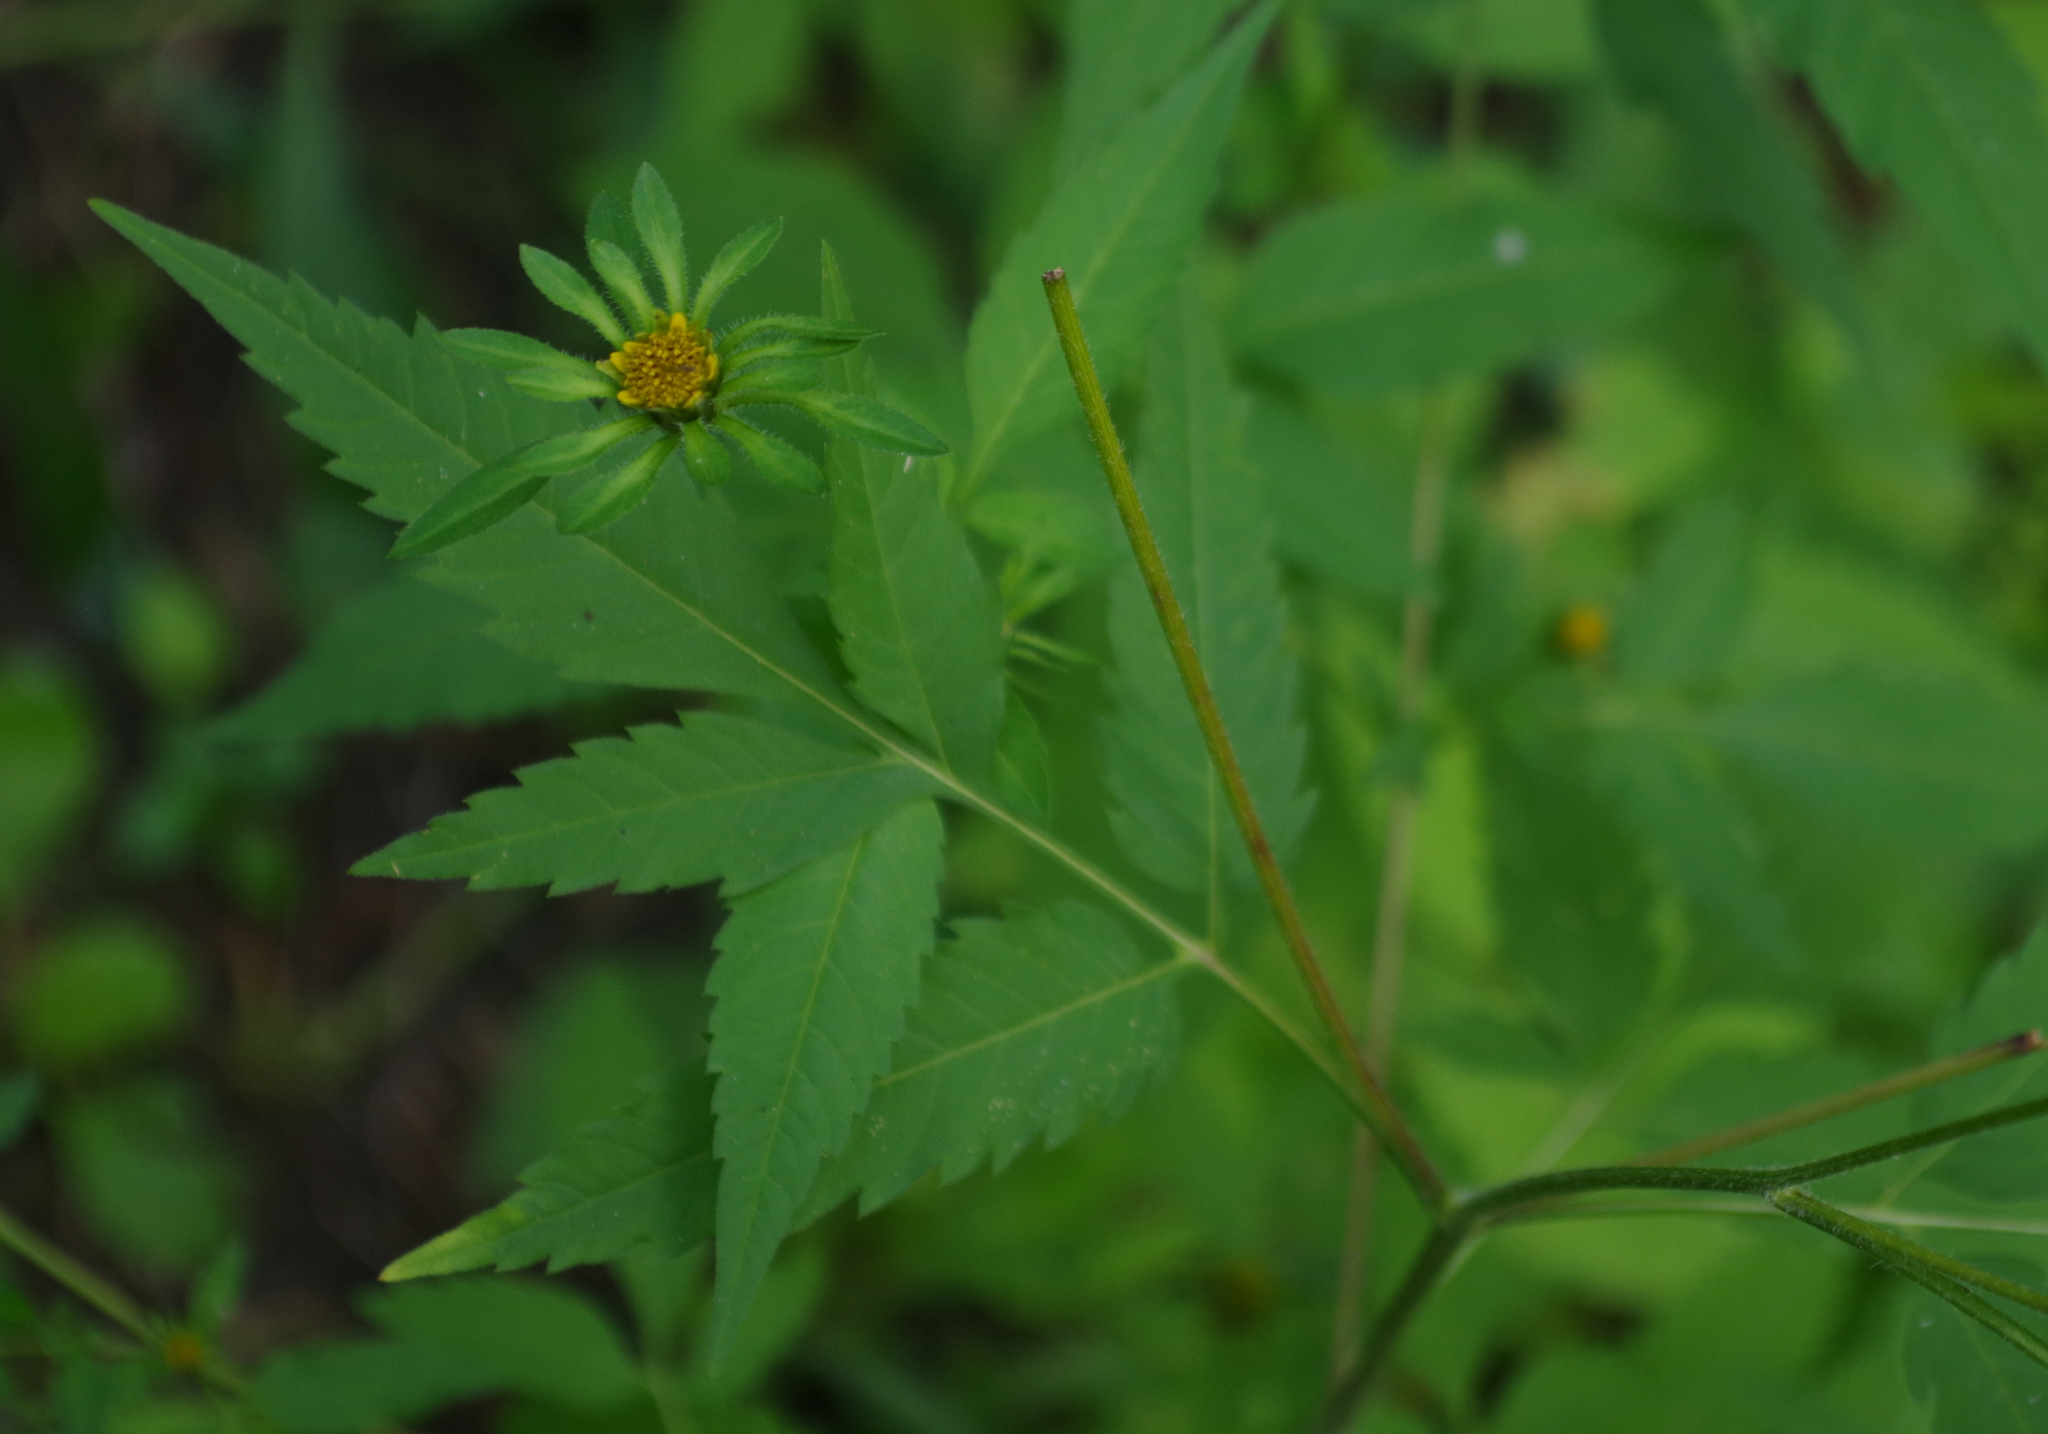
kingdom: Plantae
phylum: Tracheophyta
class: Magnoliopsida
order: Asterales
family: Asteraceae
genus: Bidens
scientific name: Bidens frondosa
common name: Beggarticks
